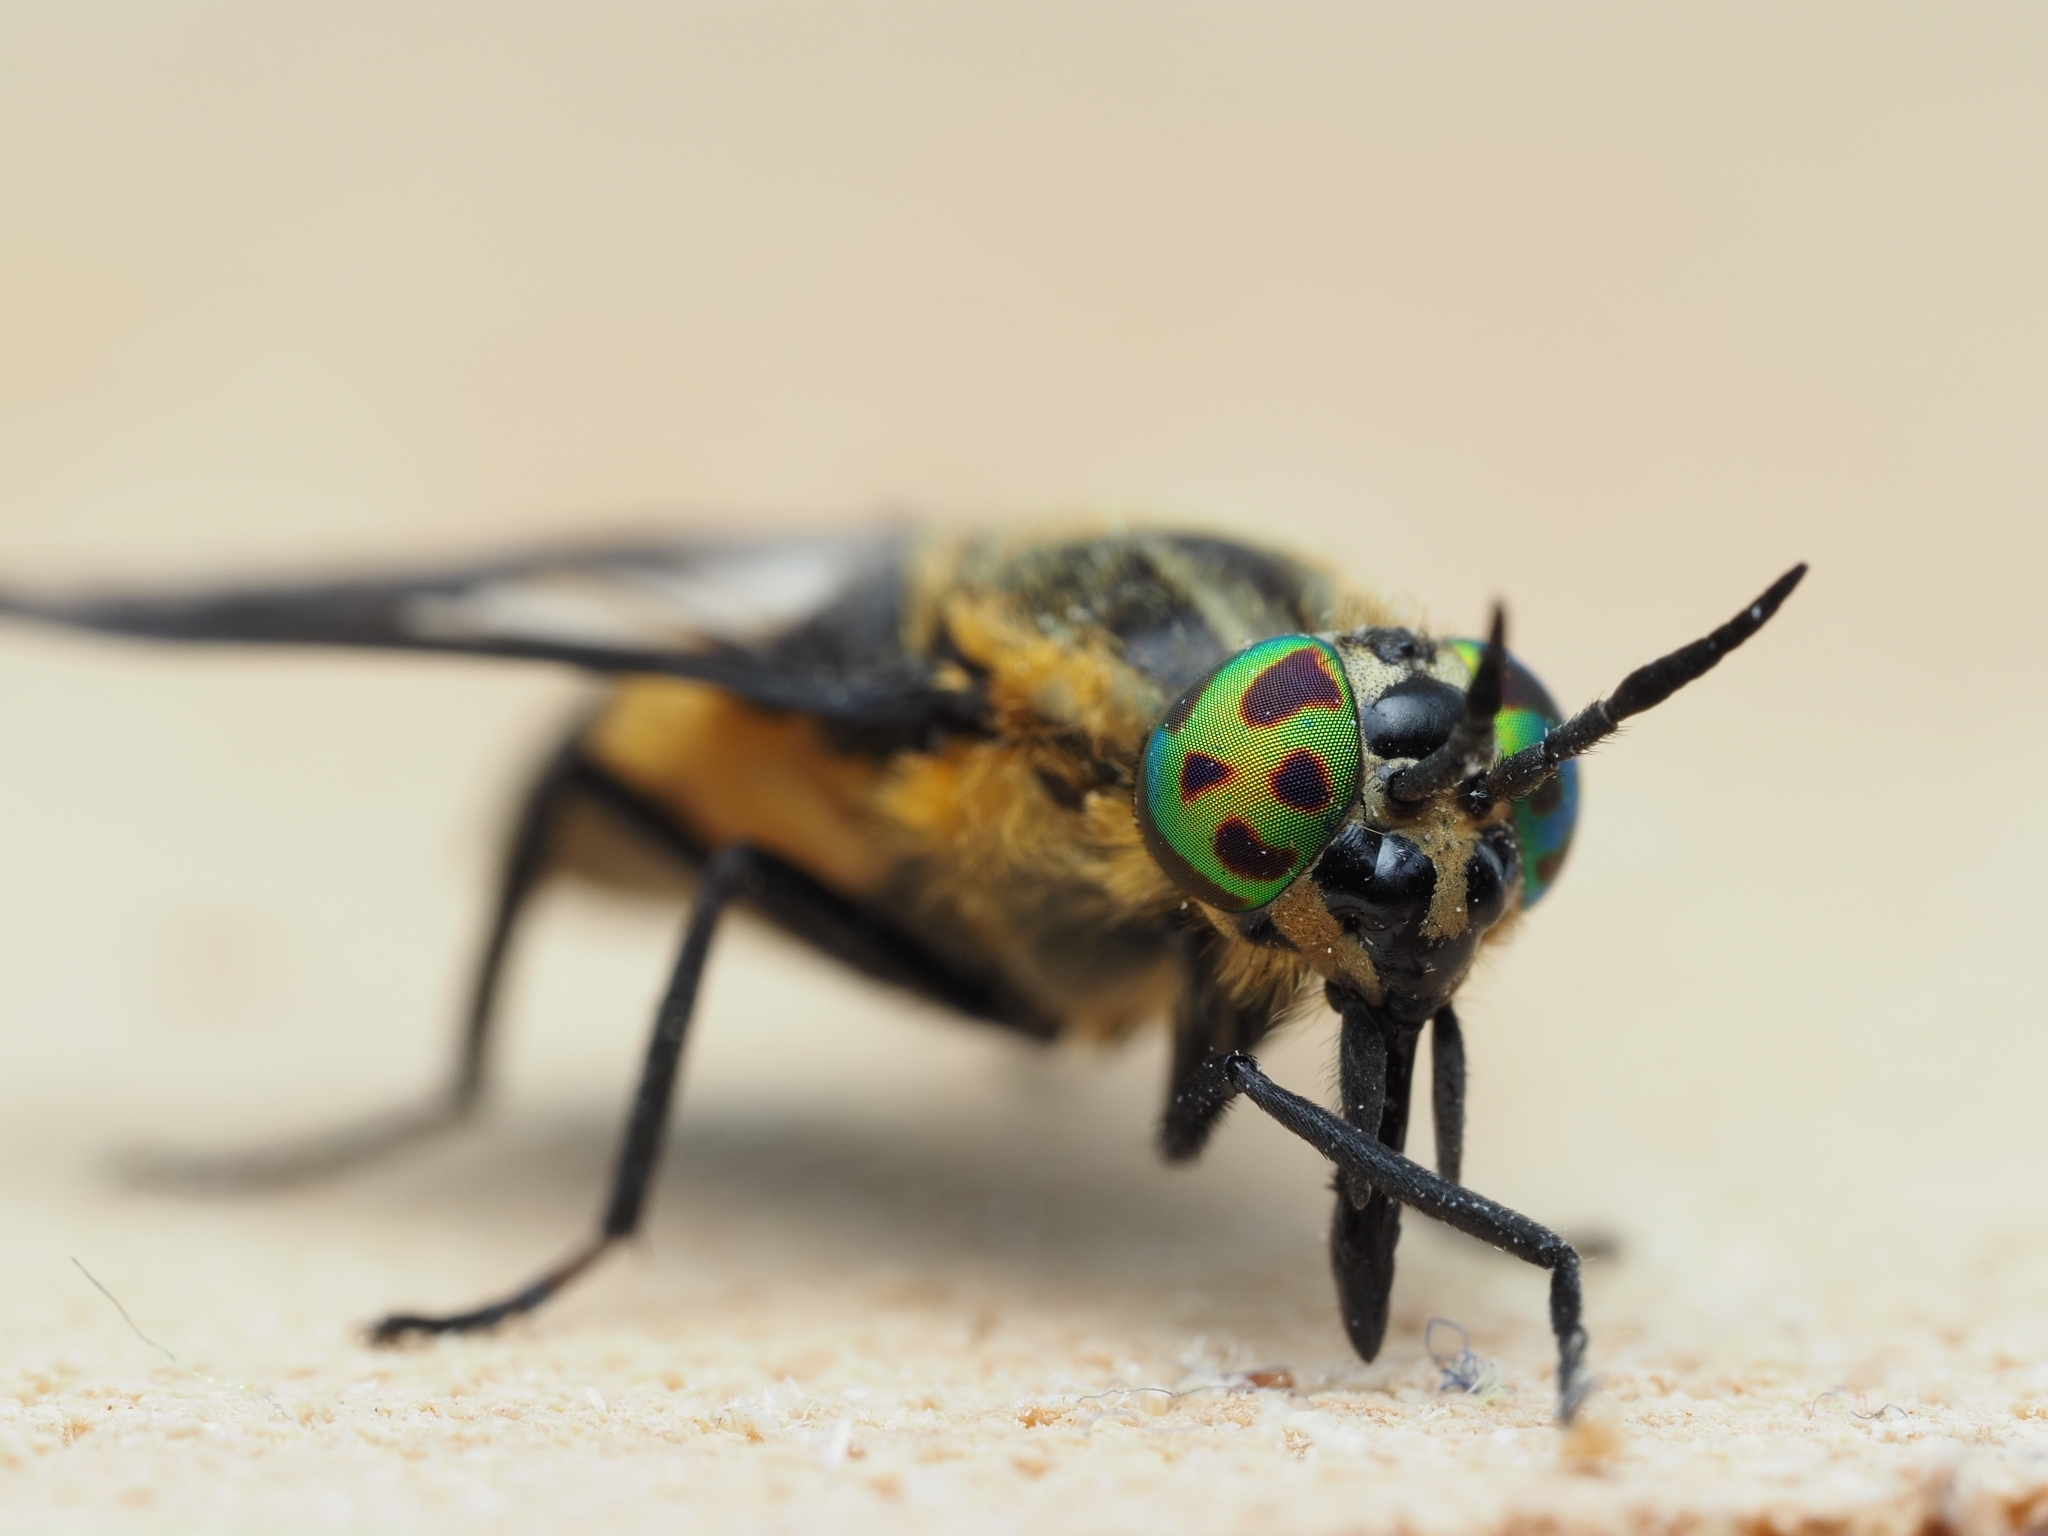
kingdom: Animalia
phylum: Arthropoda
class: Insecta
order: Diptera
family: Tabanidae
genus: Chrysops
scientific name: Chrysops caecutiens
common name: Splayed deerfly
